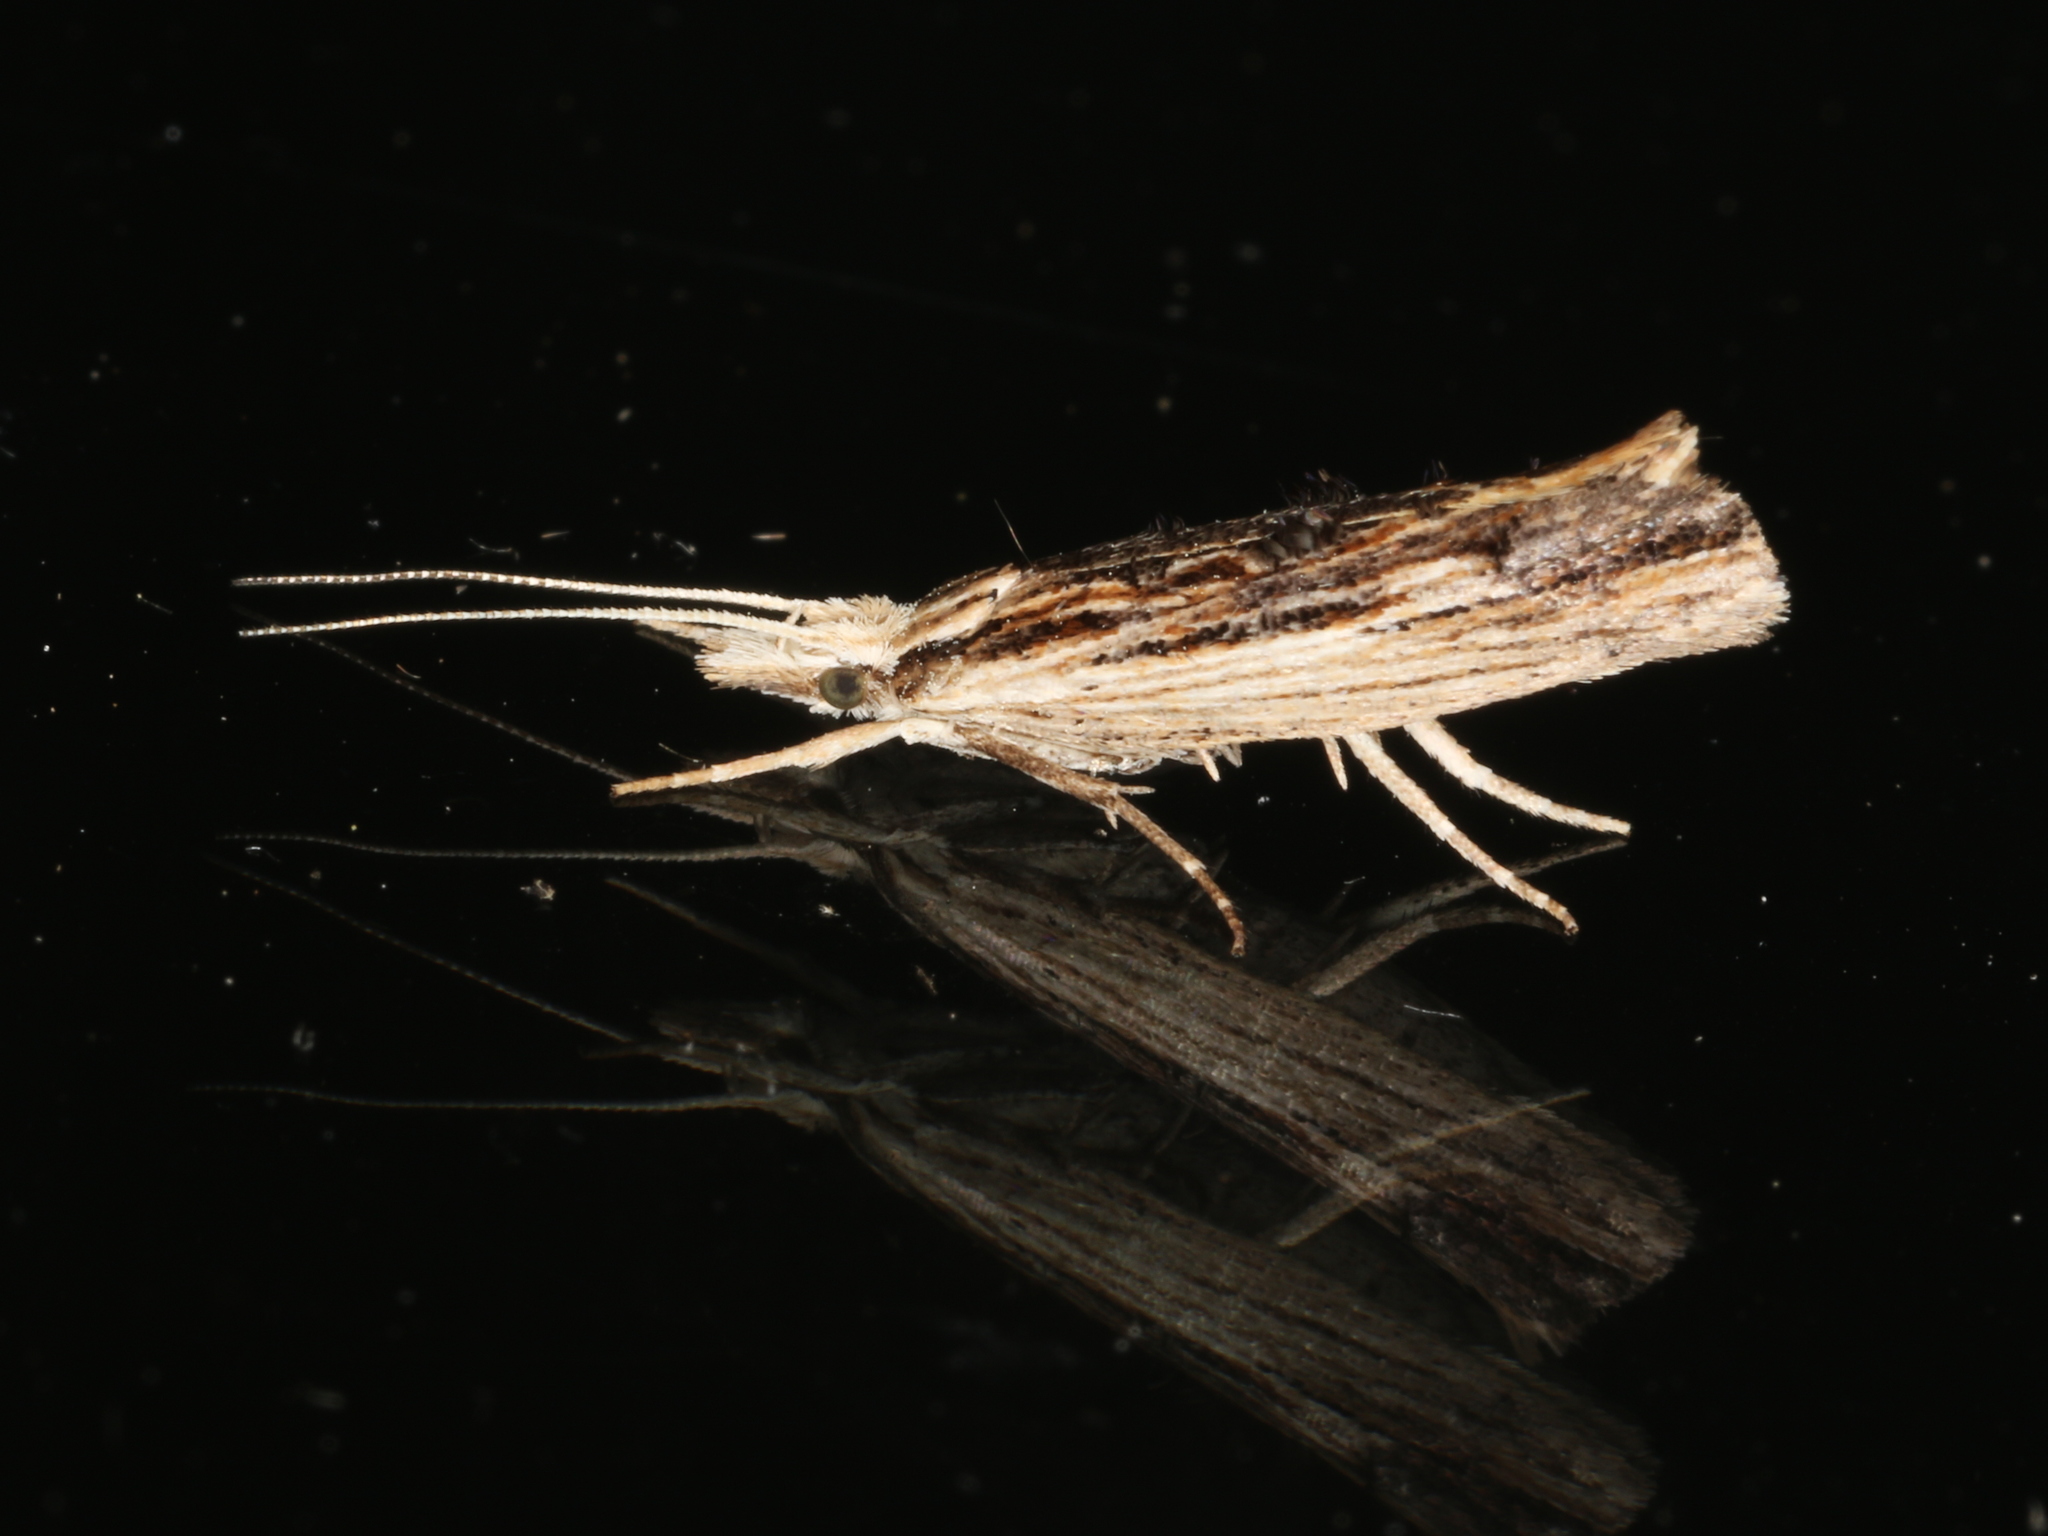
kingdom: Animalia
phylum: Arthropoda
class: Insecta
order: Lepidoptera
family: Ypsolophidae
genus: Ypsolopha
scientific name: Ypsolopha scabrella
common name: Wainscot smudge
